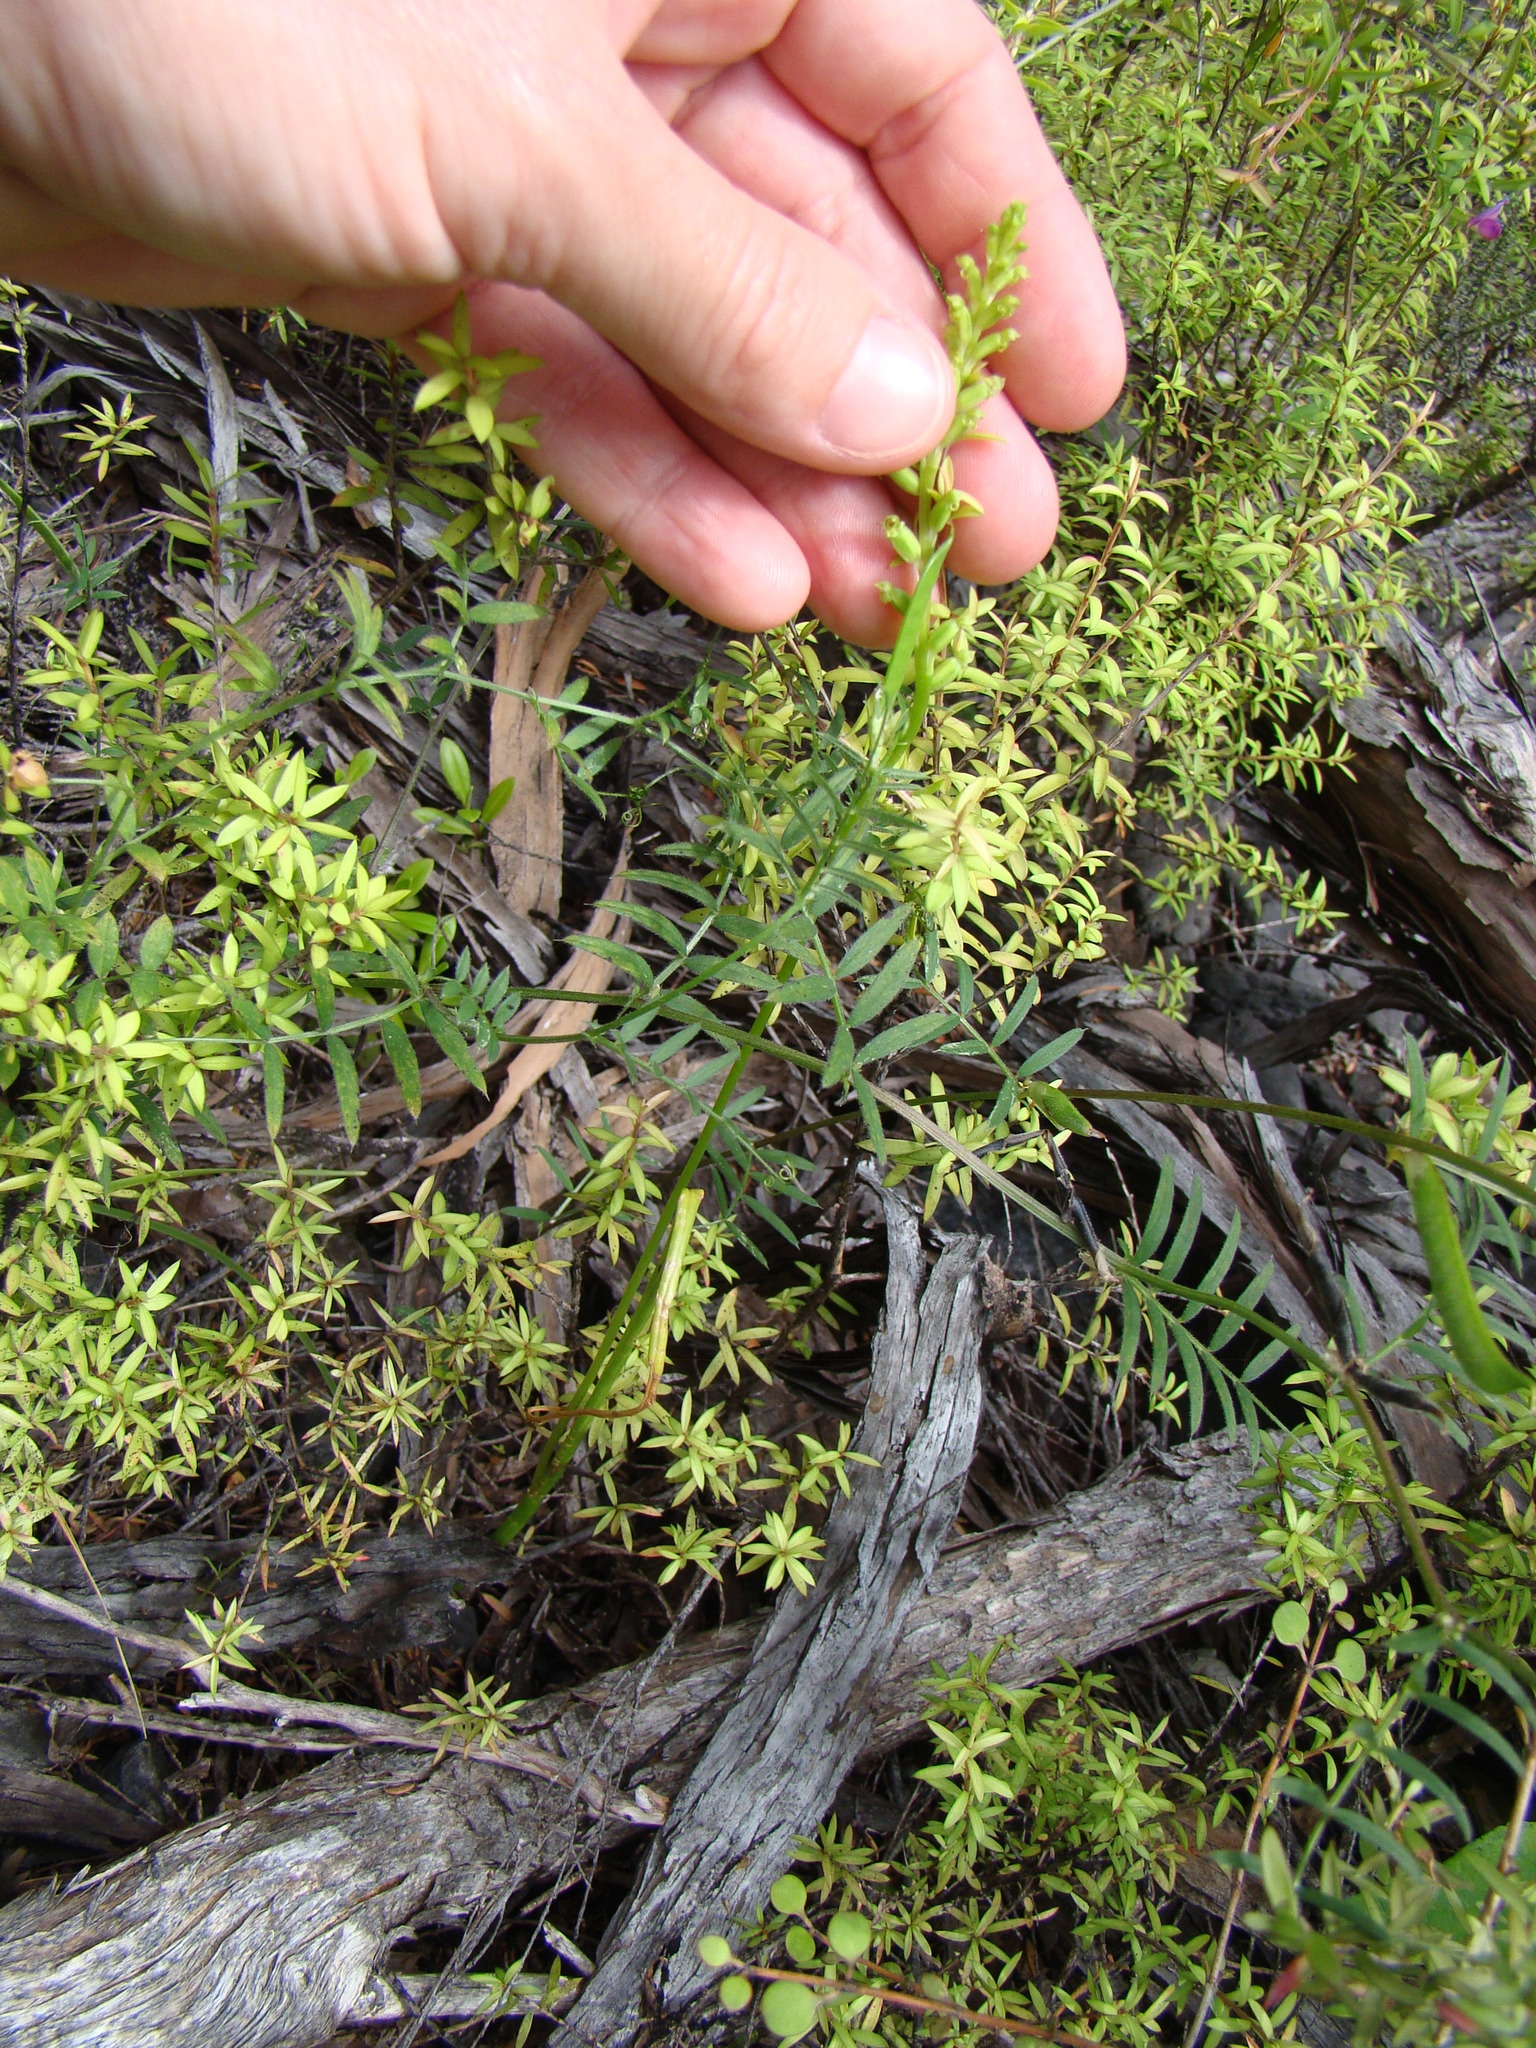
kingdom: Plantae
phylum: Tracheophyta
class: Liliopsida
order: Asparagales
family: Orchidaceae
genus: Microtis
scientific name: Microtis unifolia
